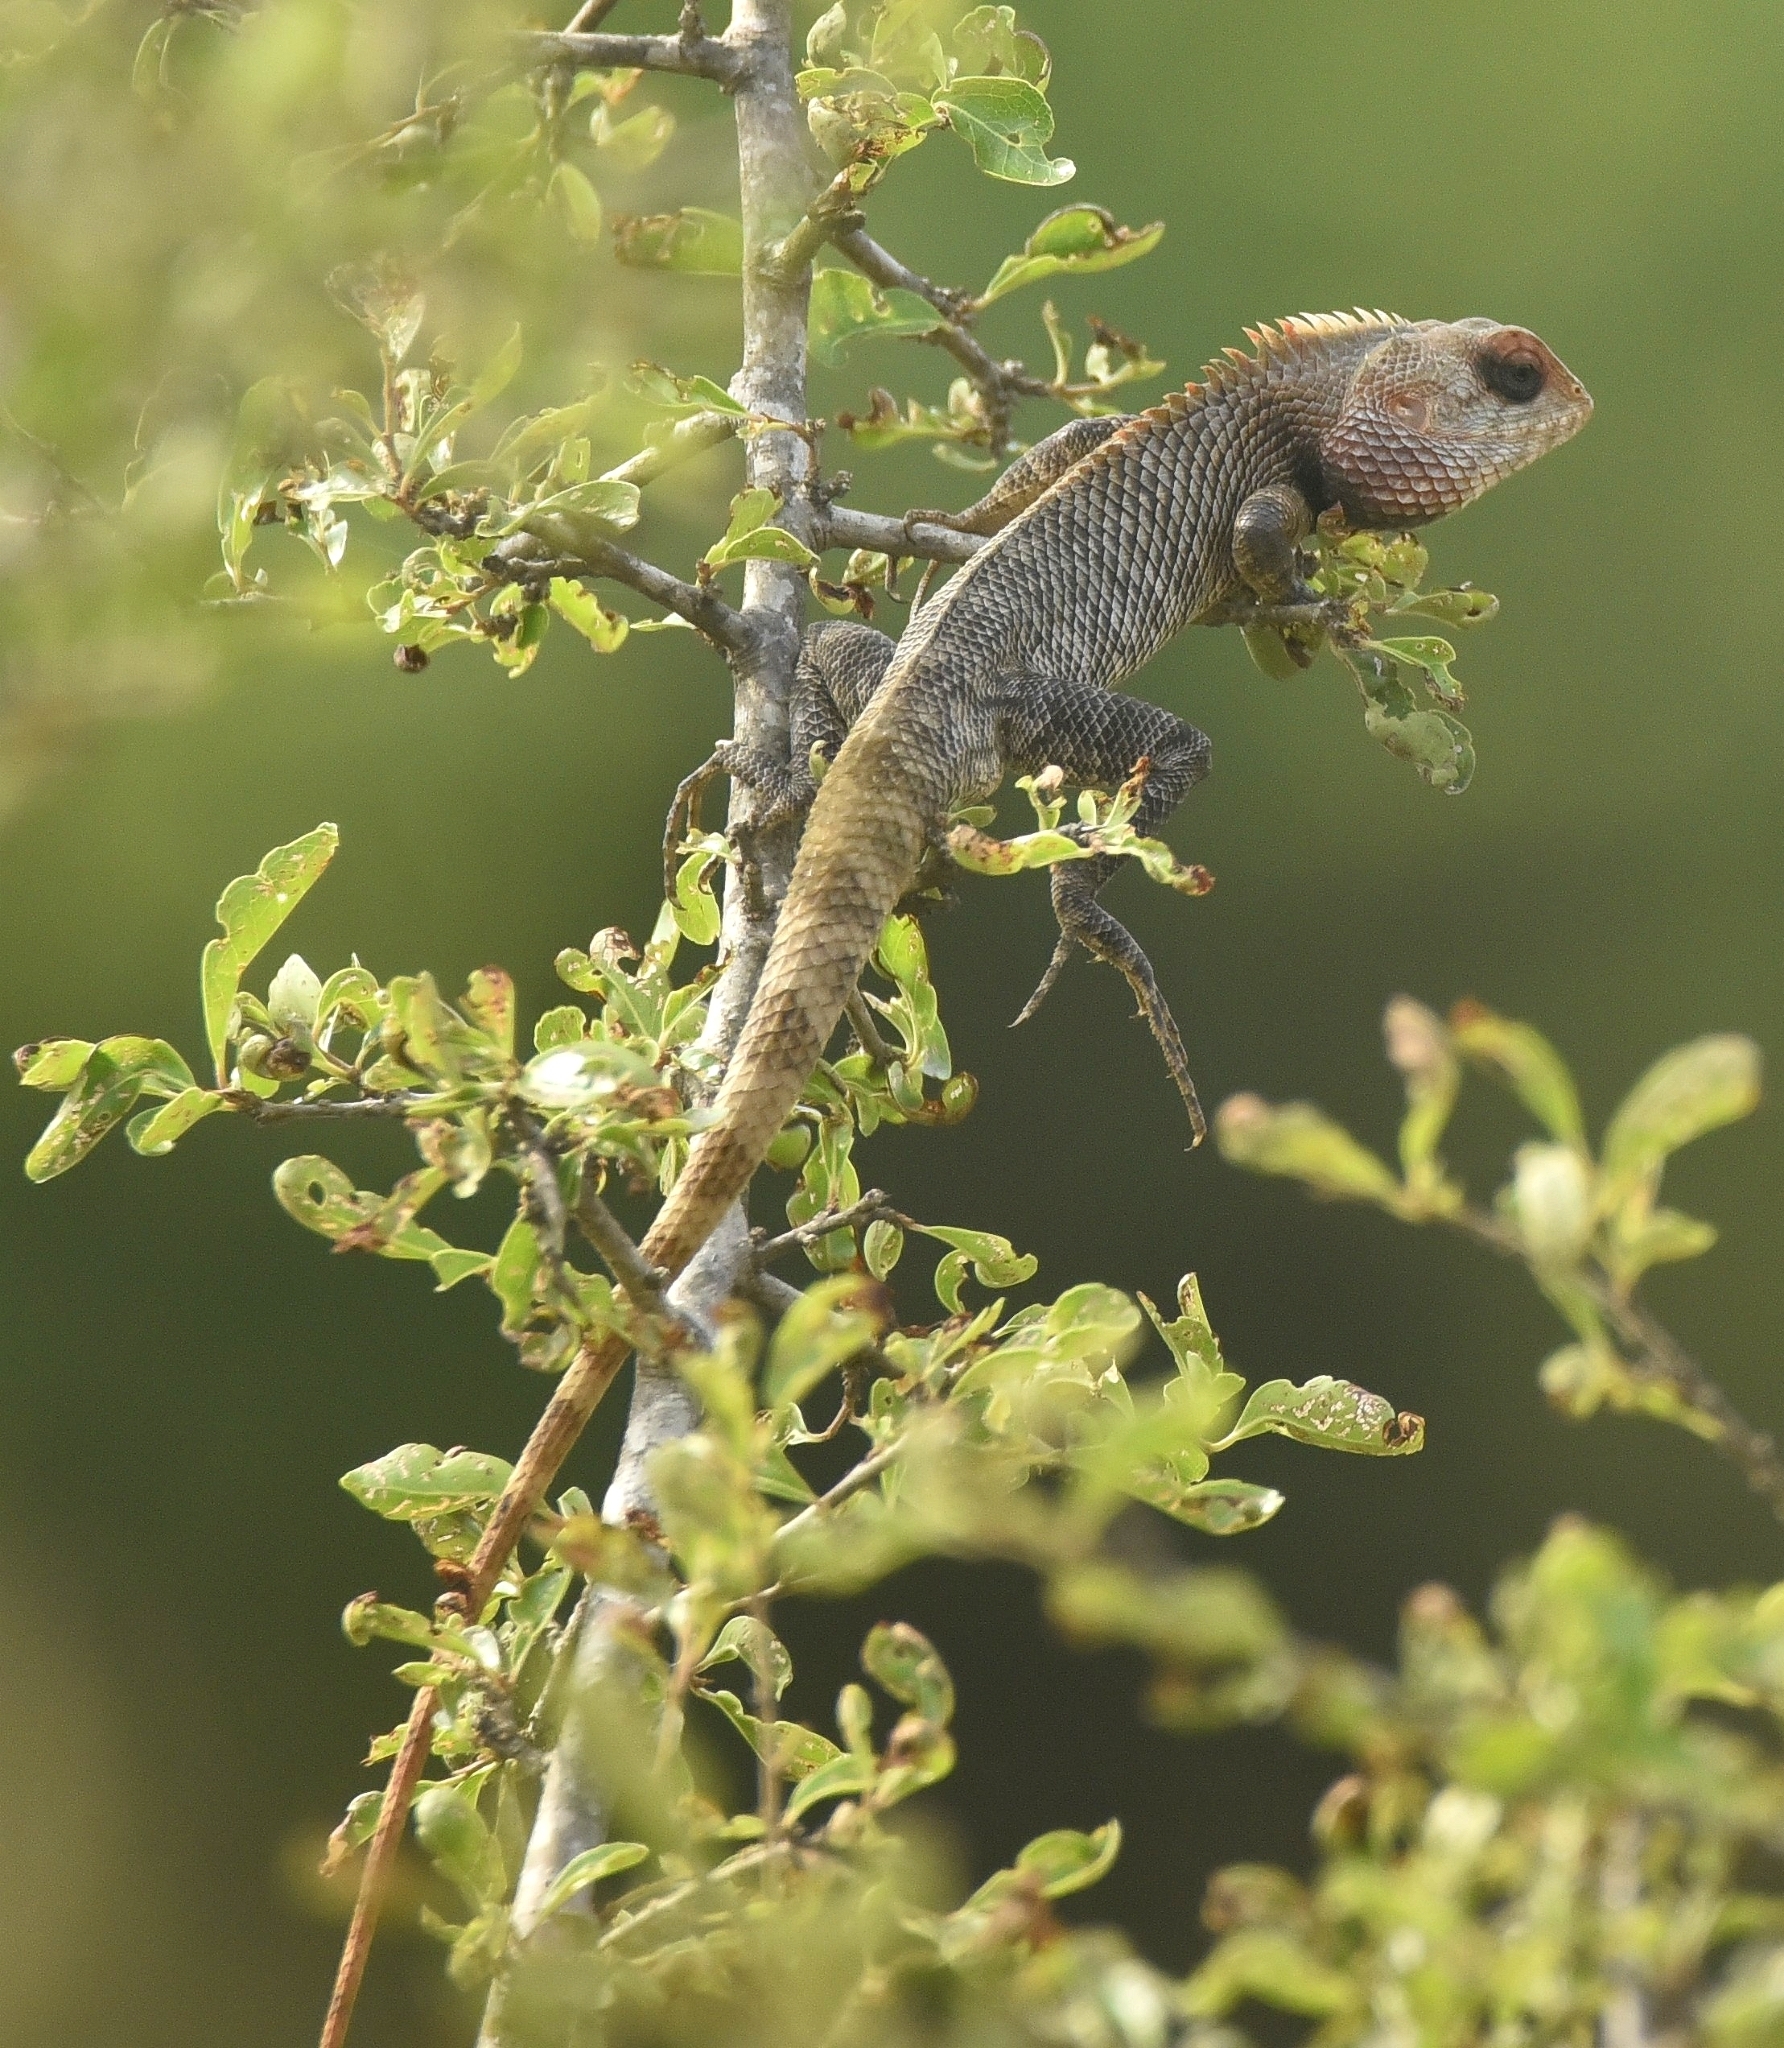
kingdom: Animalia
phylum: Chordata
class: Squamata
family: Agamidae
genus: Calotes
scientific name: Calotes versicolor
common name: Oriental garden lizard
